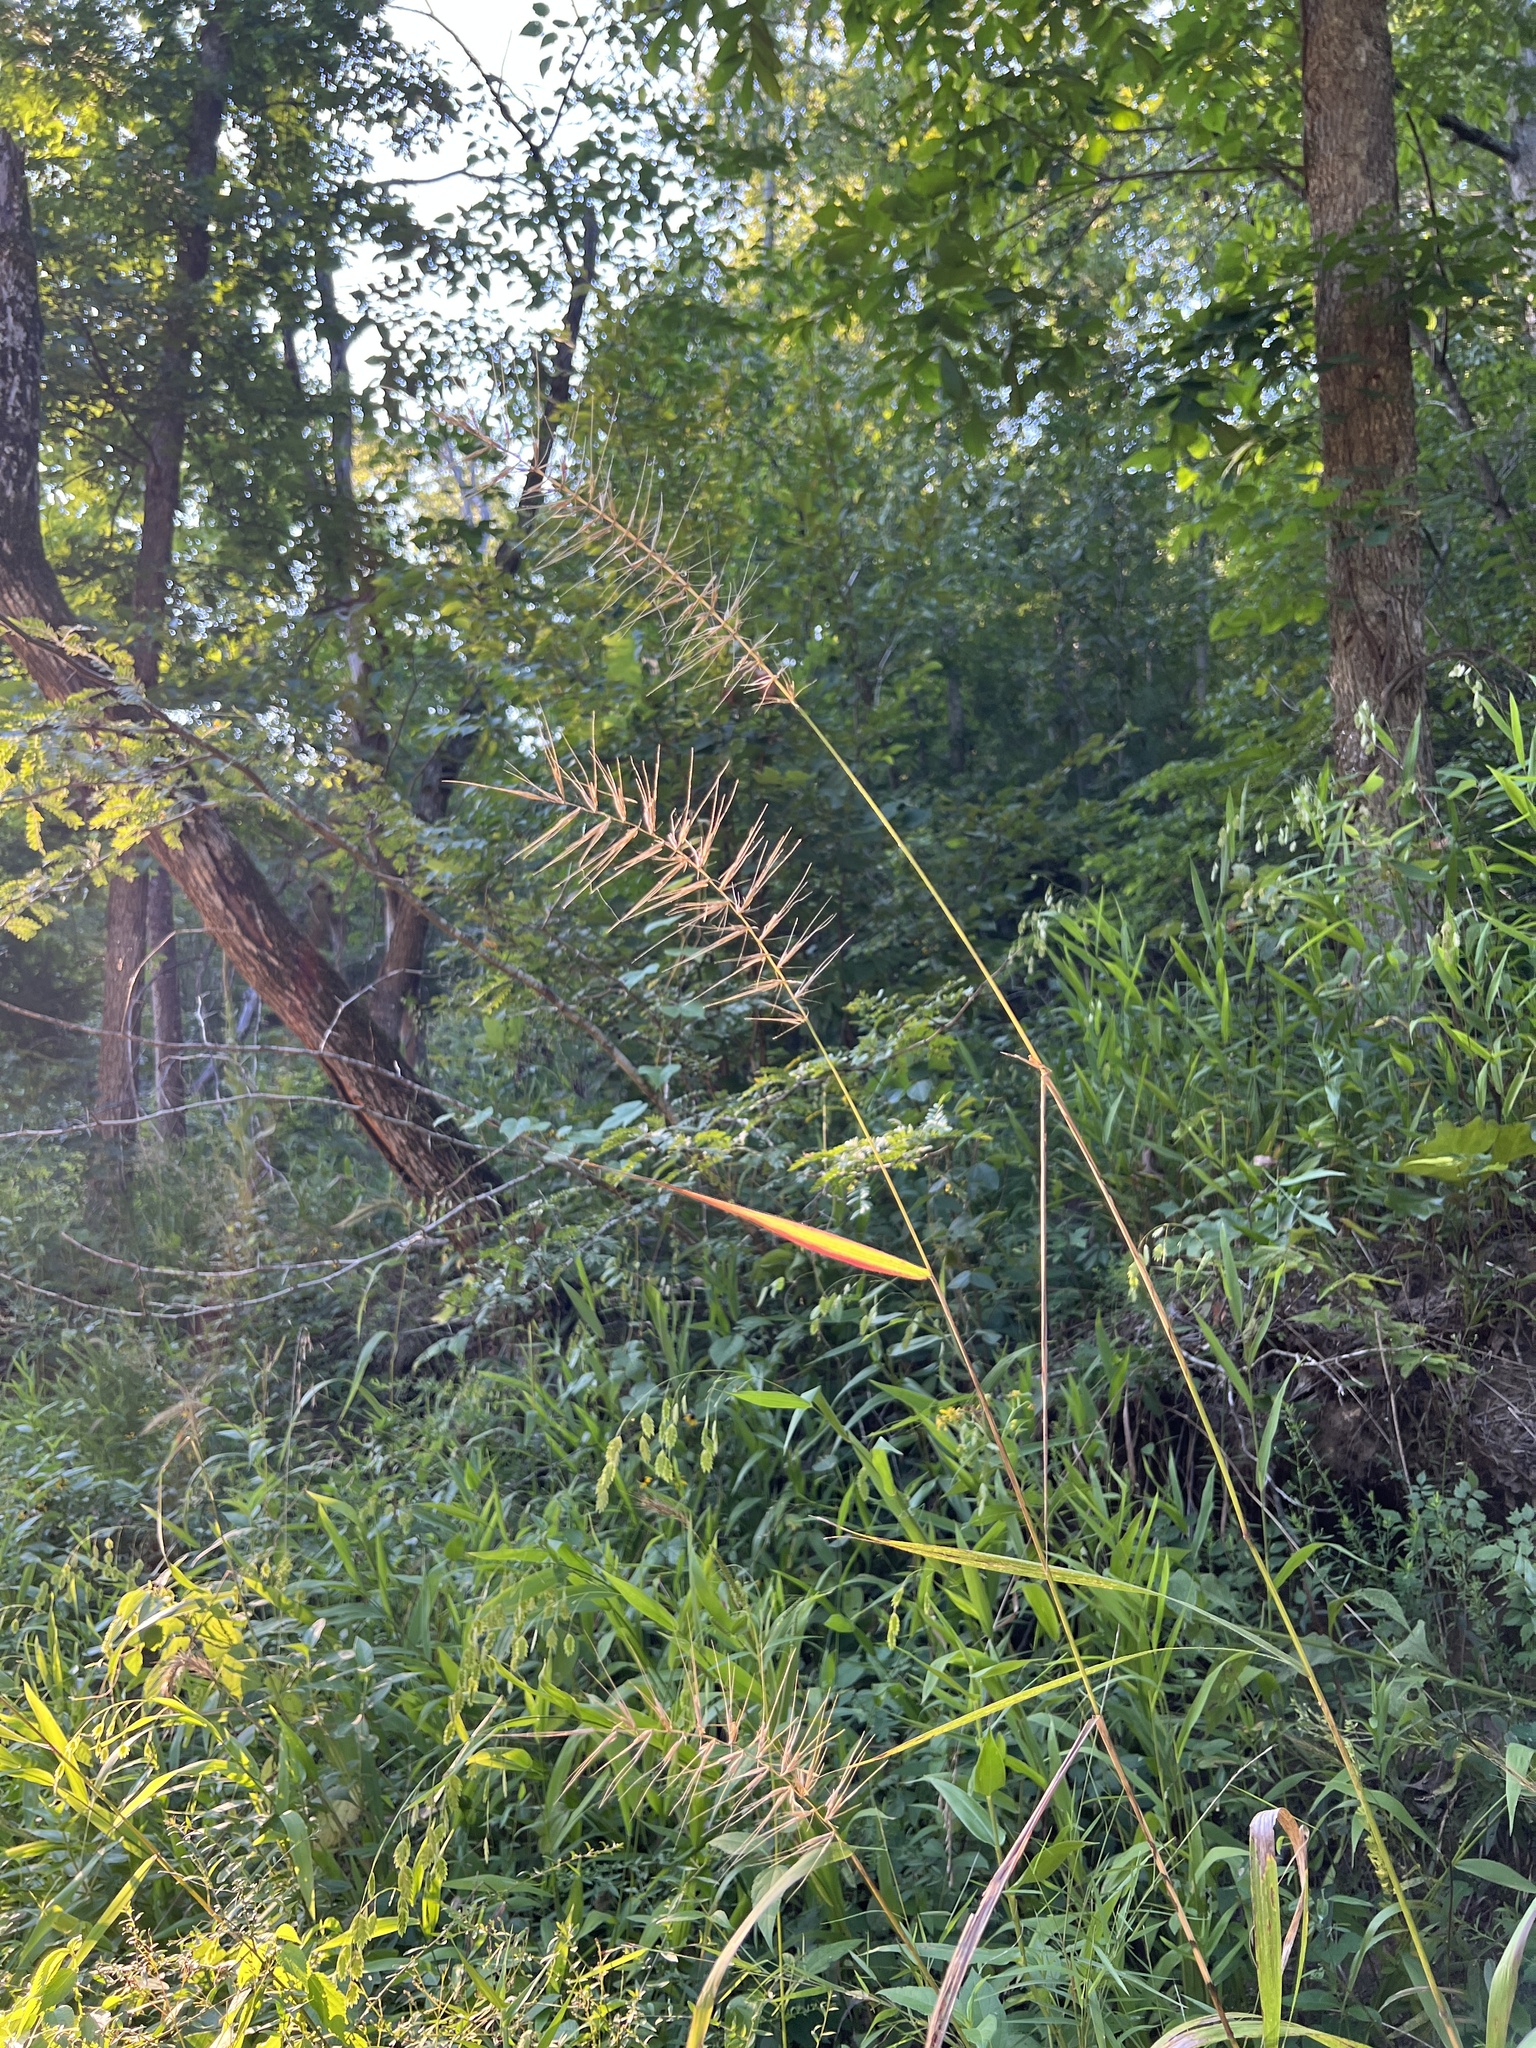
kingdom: Plantae
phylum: Tracheophyta
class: Liliopsida
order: Poales
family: Poaceae
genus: Elymus
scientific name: Elymus hystrix
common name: Bottlebrush grass
